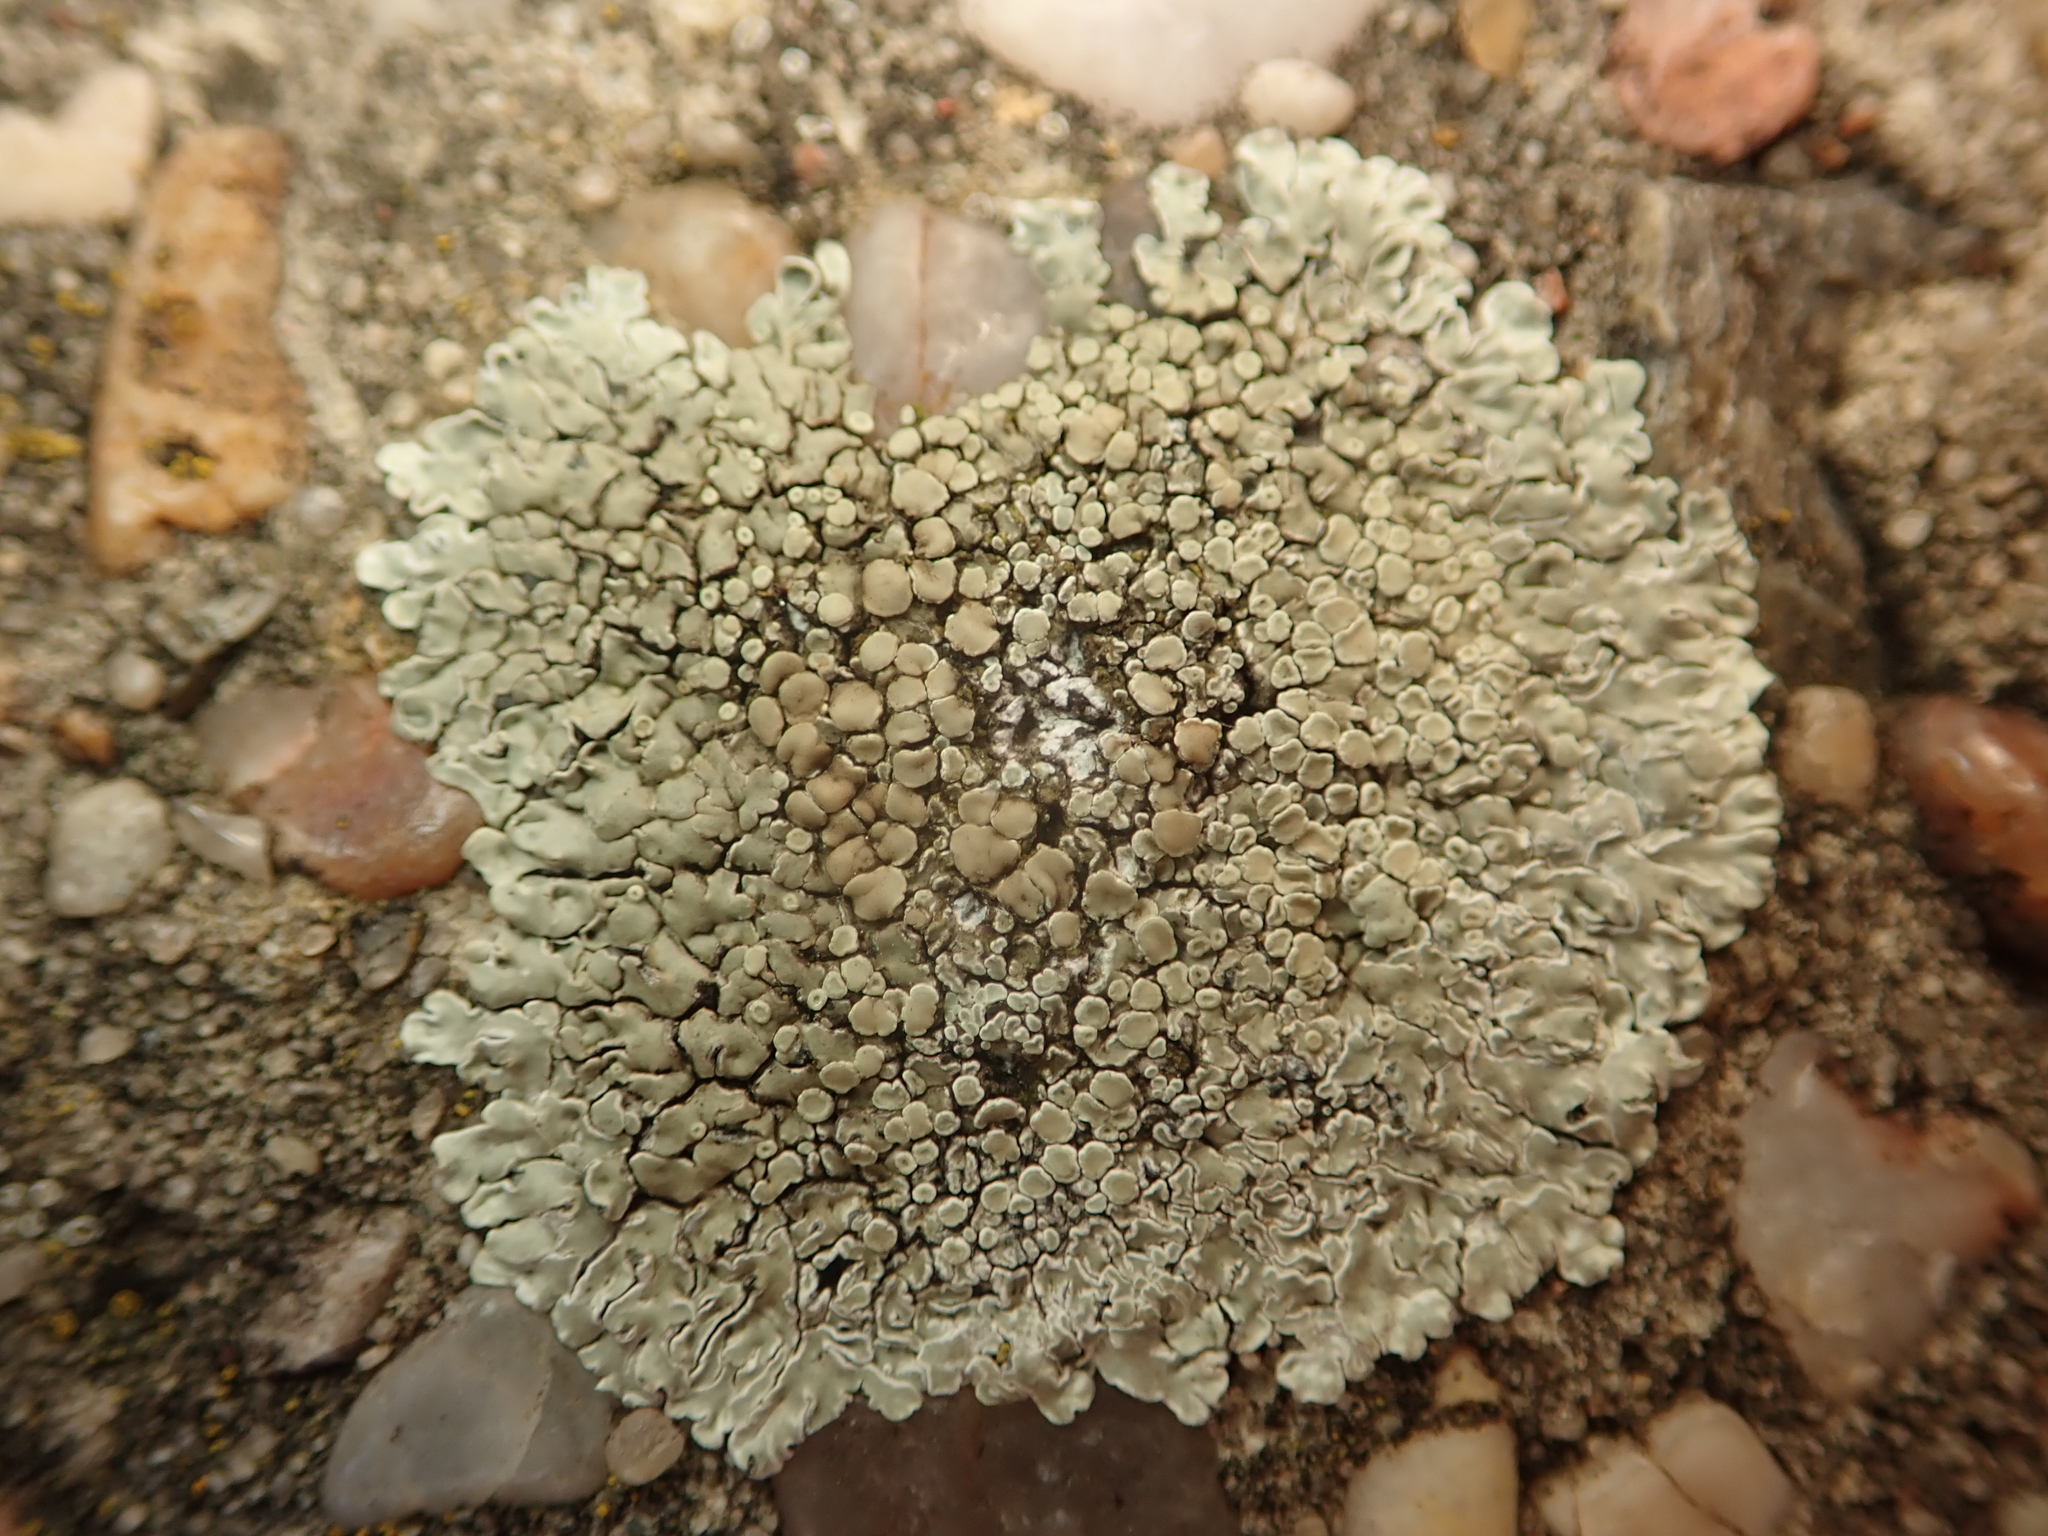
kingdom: Fungi
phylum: Ascomycota
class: Lecanoromycetes
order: Lecanorales
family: Lecanoraceae
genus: Protoparmeliopsis
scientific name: Protoparmeliopsis muralis
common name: Stonewall rim lichen
